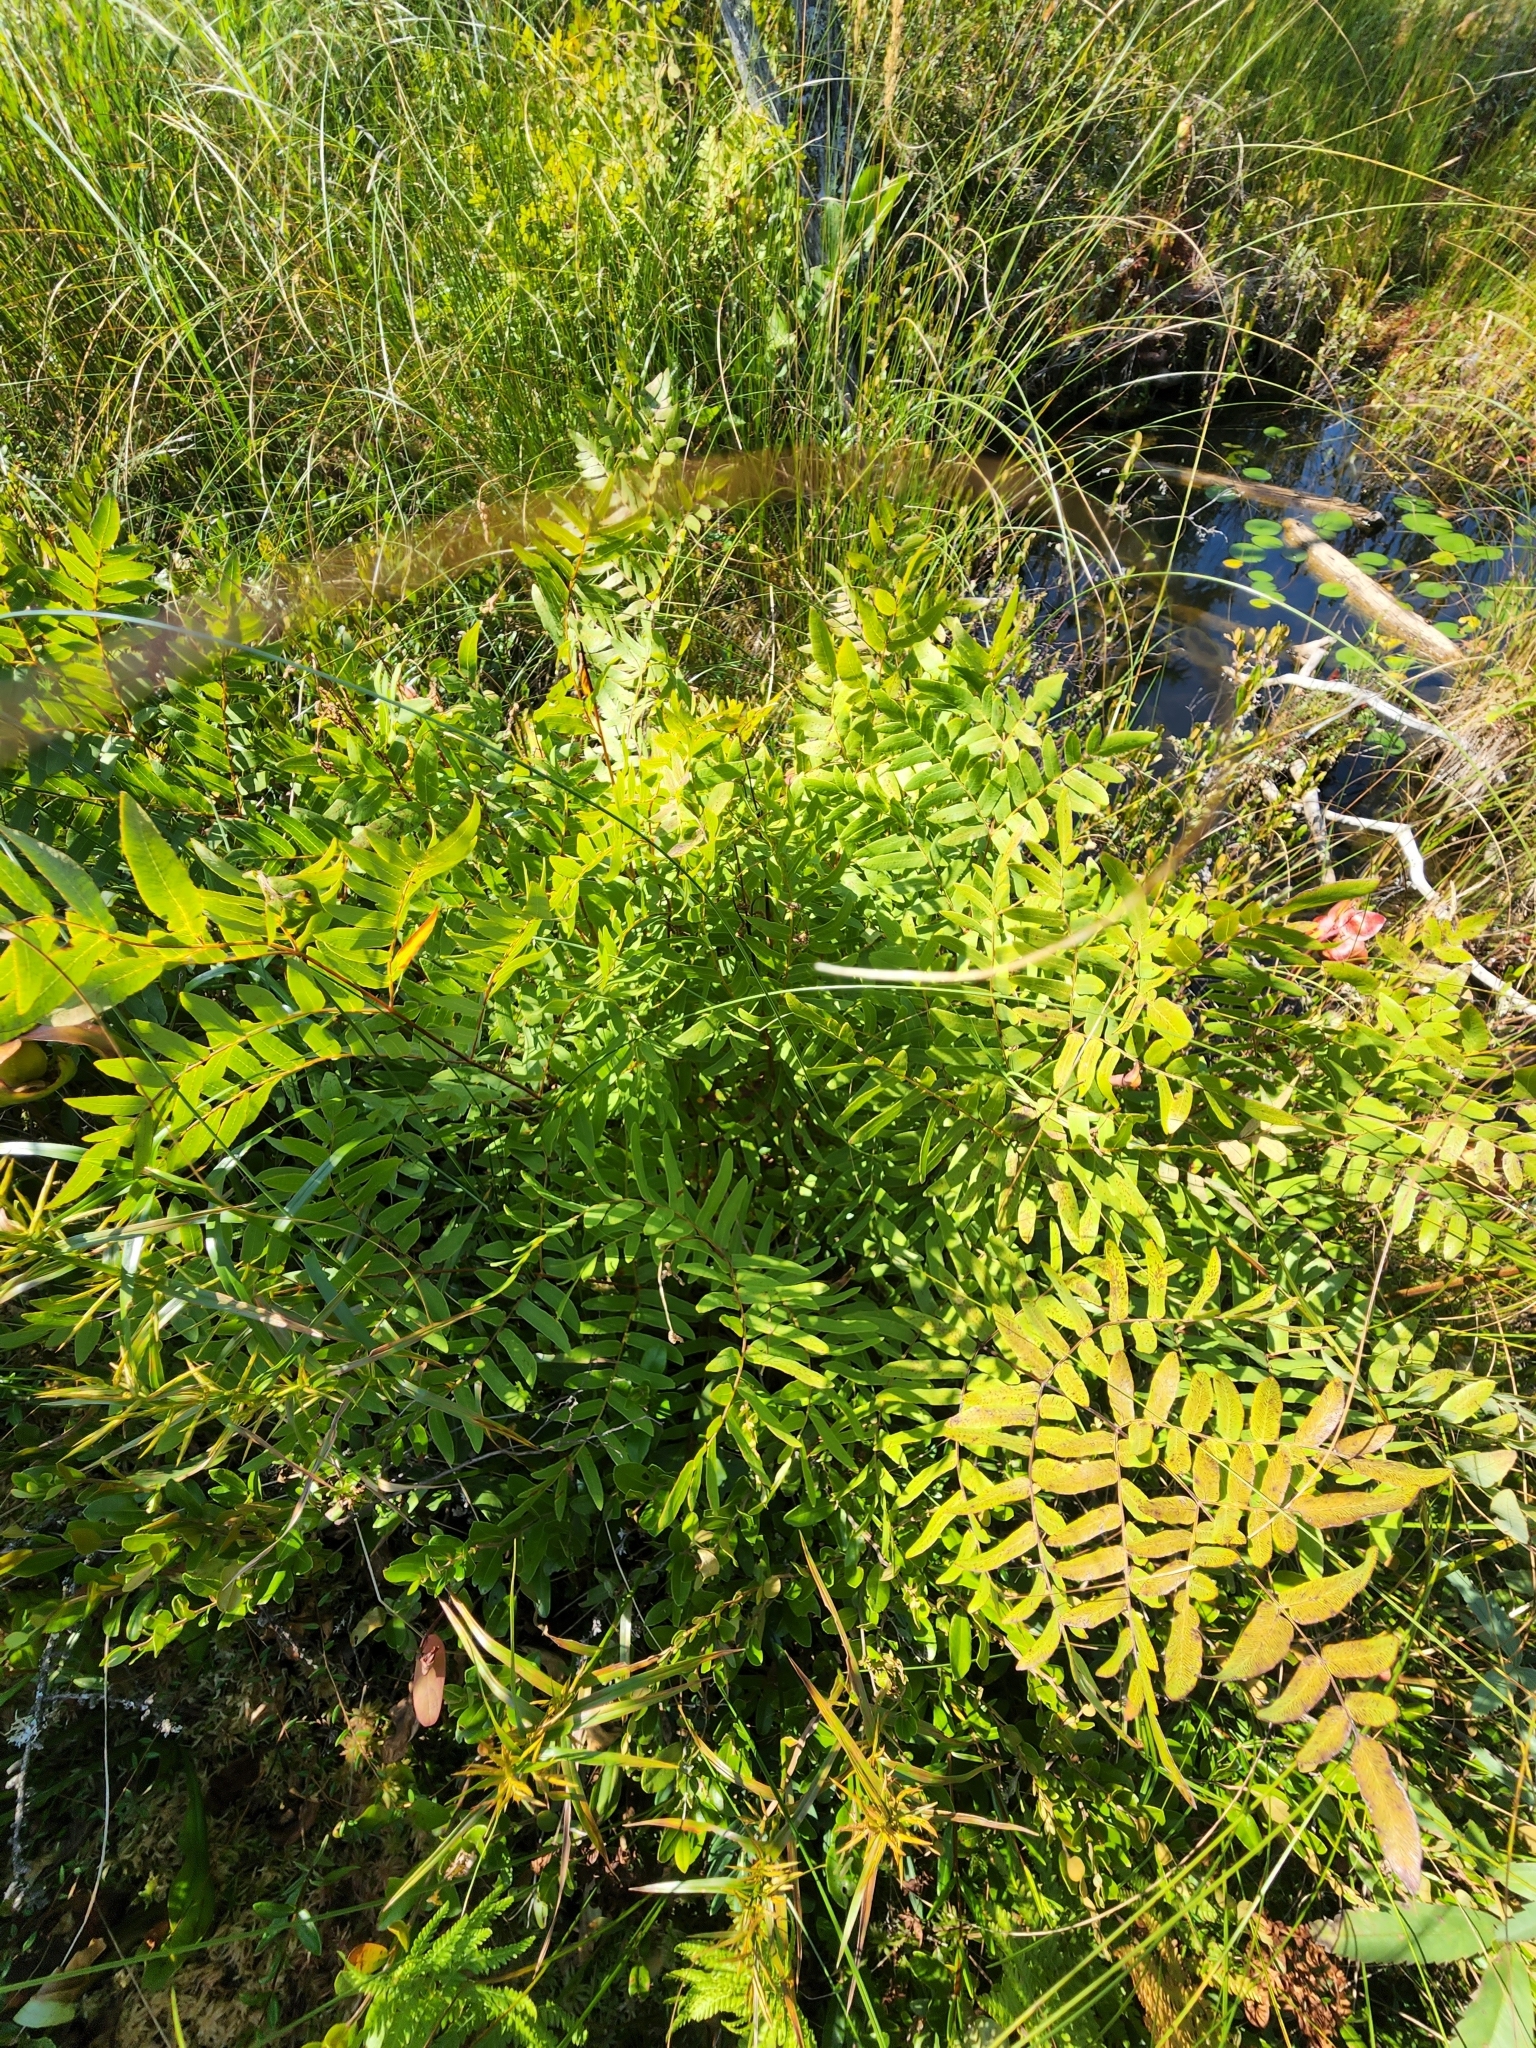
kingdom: Plantae
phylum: Tracheophyta
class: Polypodiopsida
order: Osmundales
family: Osmundaceae
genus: Osmunda
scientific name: Osmunda spectabilis
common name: American royal fern
